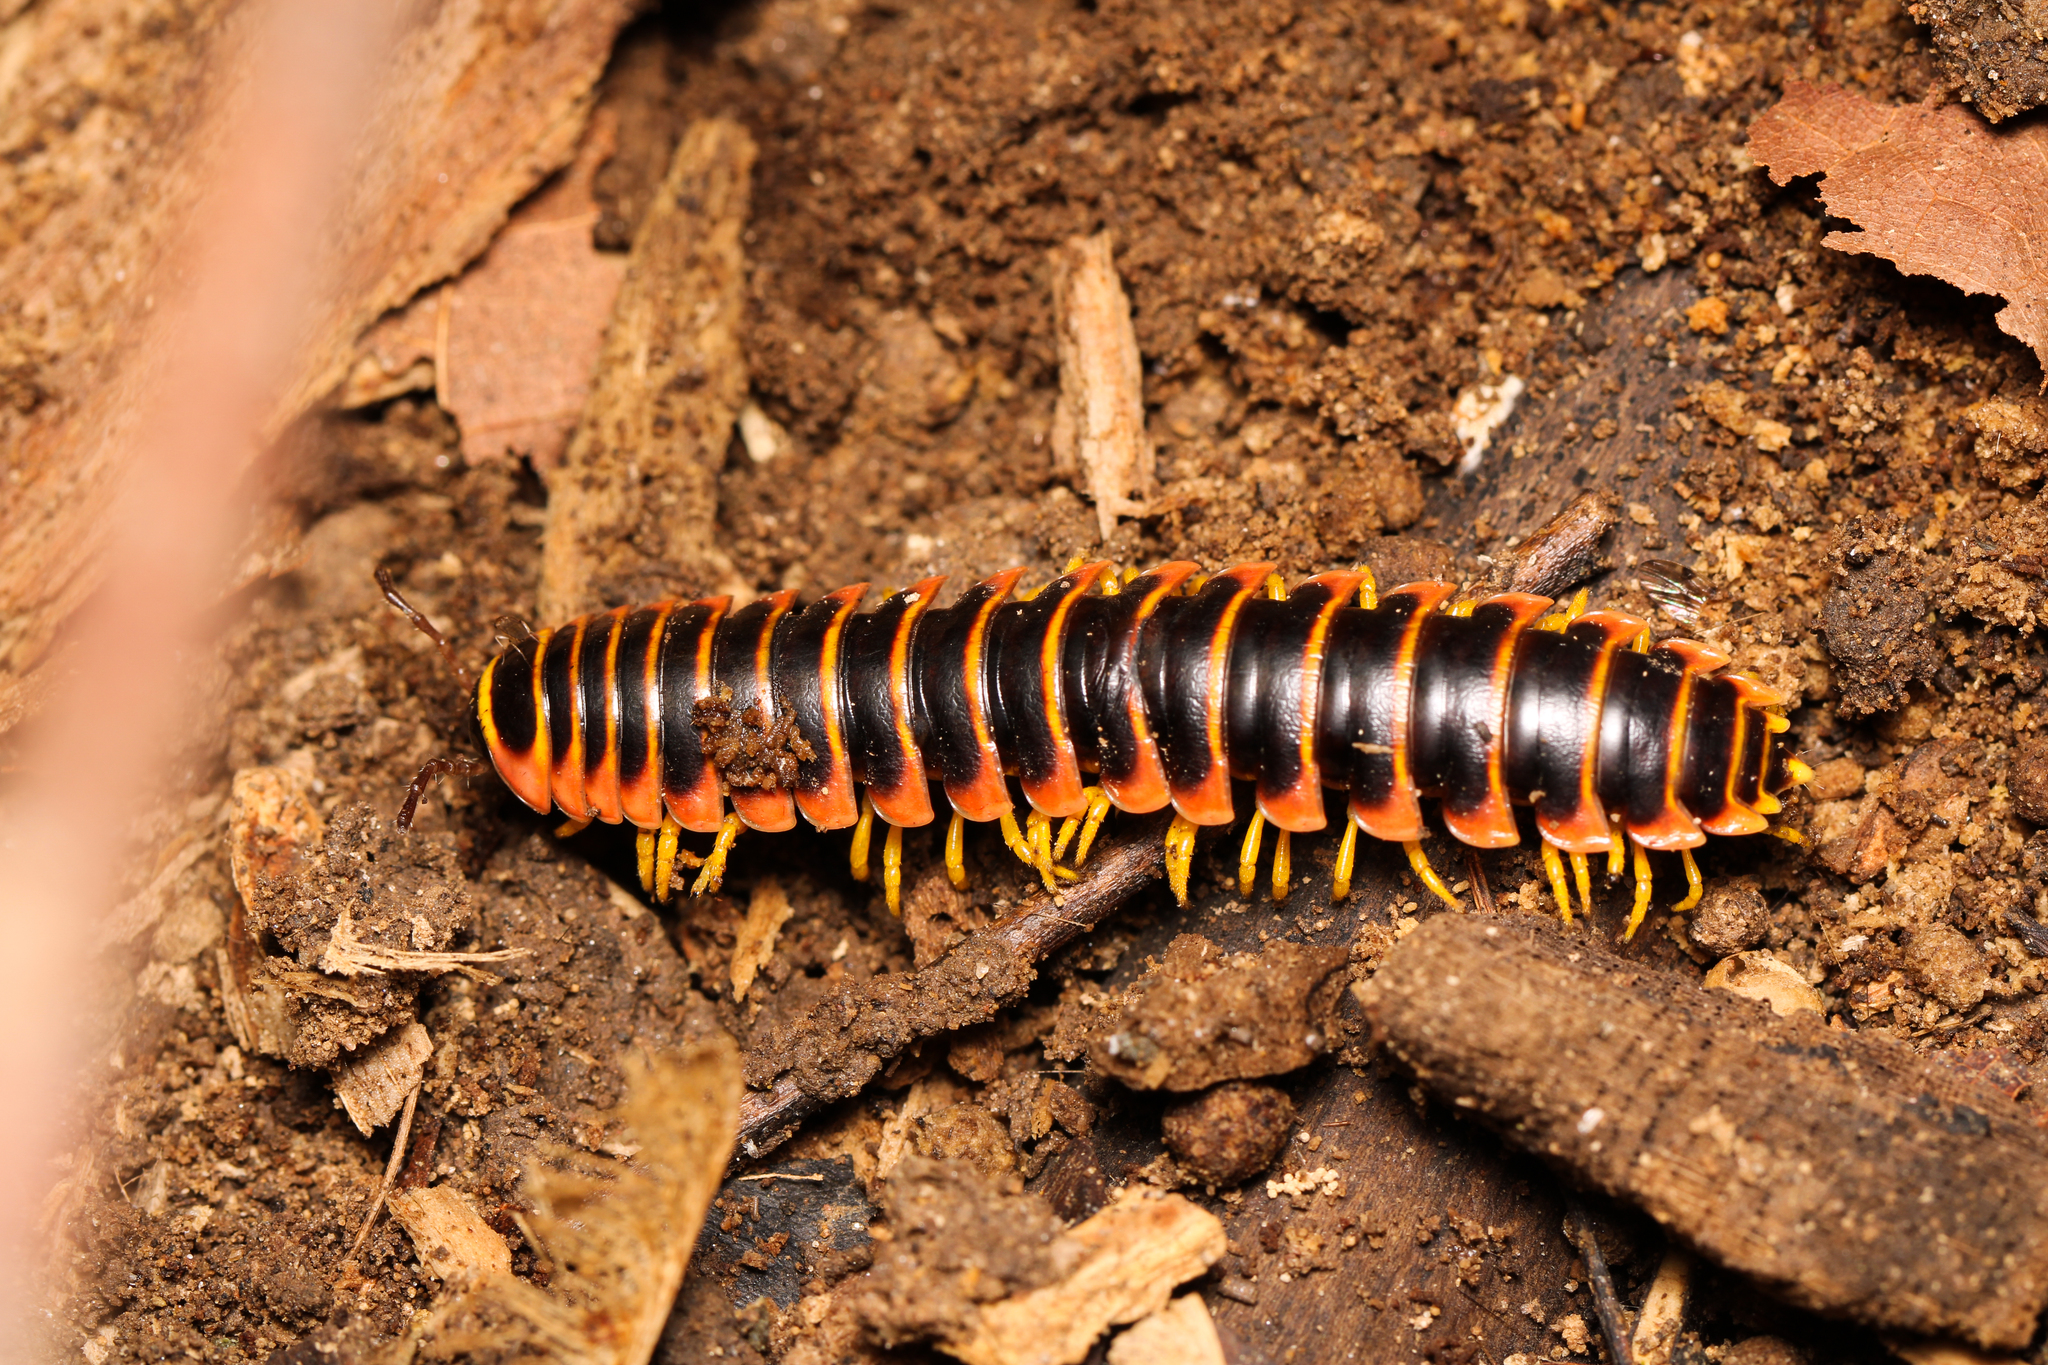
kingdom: Animalia
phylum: Arthropoda
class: Diplopoda
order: Polydesmida
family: Xystodesmidae
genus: Apheloria
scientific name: Apheloria virginiensis
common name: Black-and-gold flat millipede
